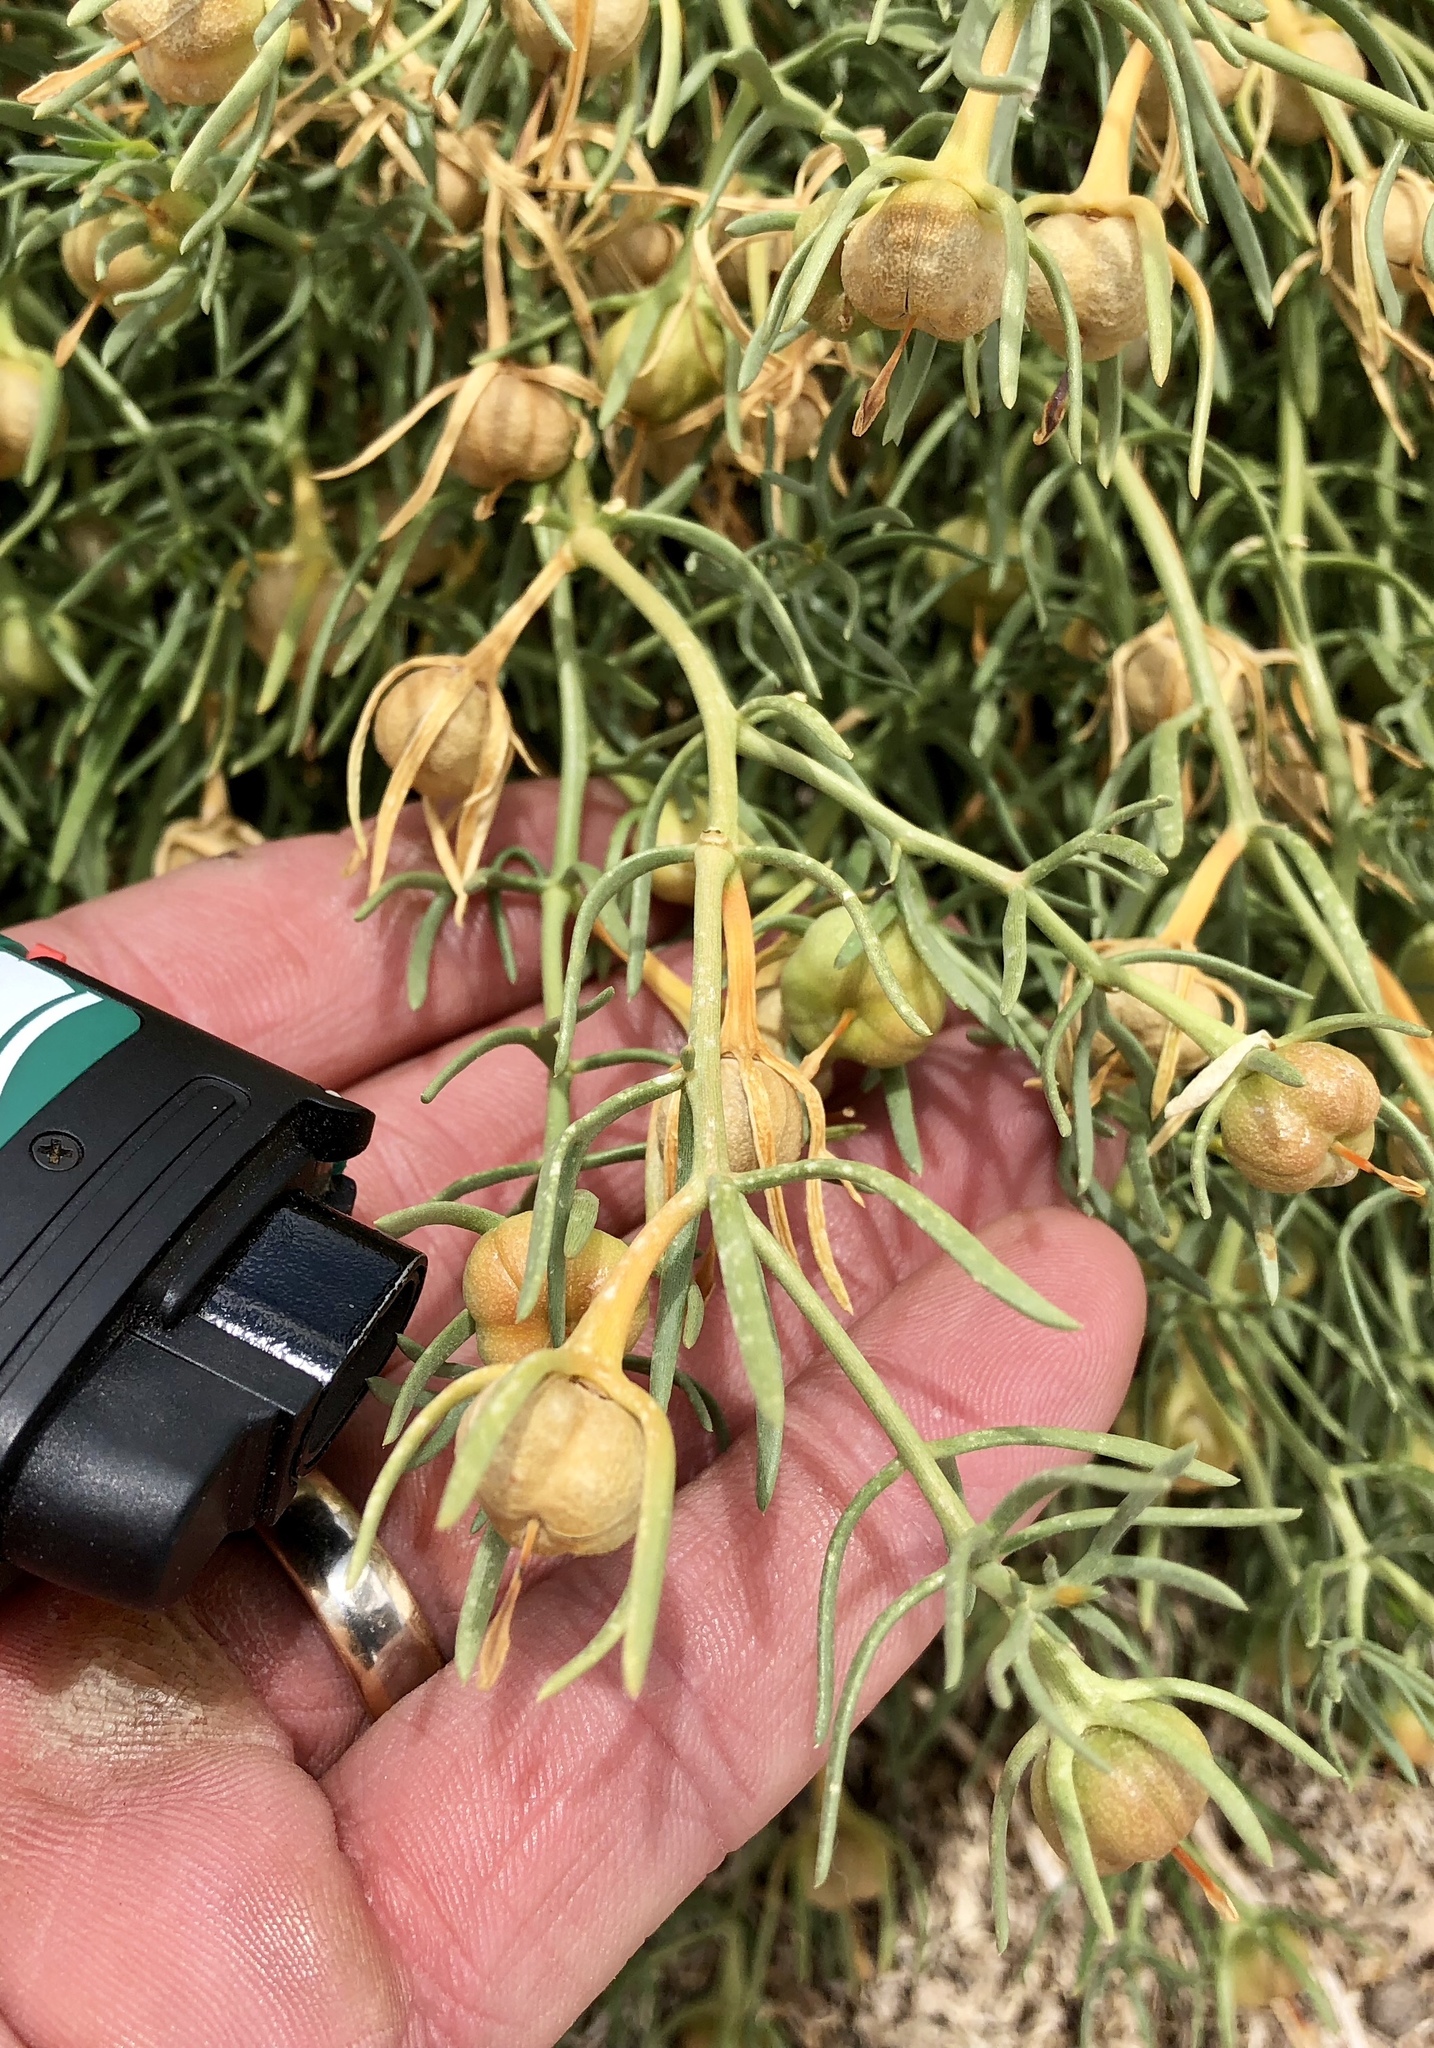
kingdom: Plantae
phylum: Tracheophyta
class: Magnoliopsida
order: Sapindales
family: Tetradiclidaceae
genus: Peganum
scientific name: Peganum harmala
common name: Harmal peganum
